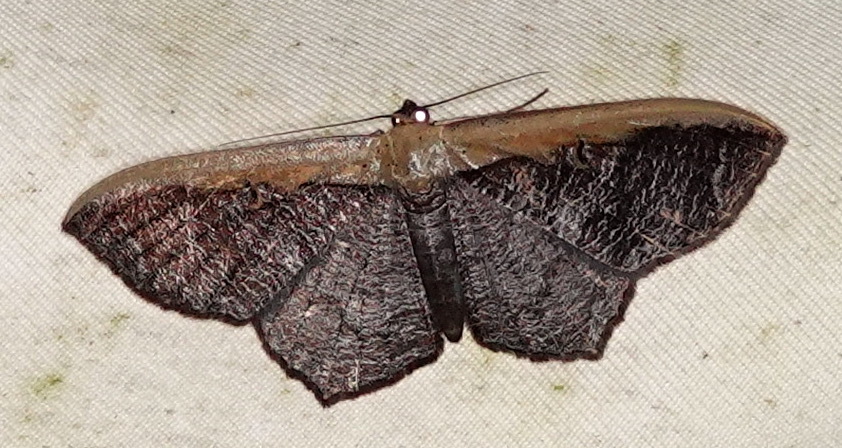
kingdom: Animalia
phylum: Arthropoda
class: Insecta
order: Lepidoptera
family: Geometridae
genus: Zythos
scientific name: Zythos strigata
